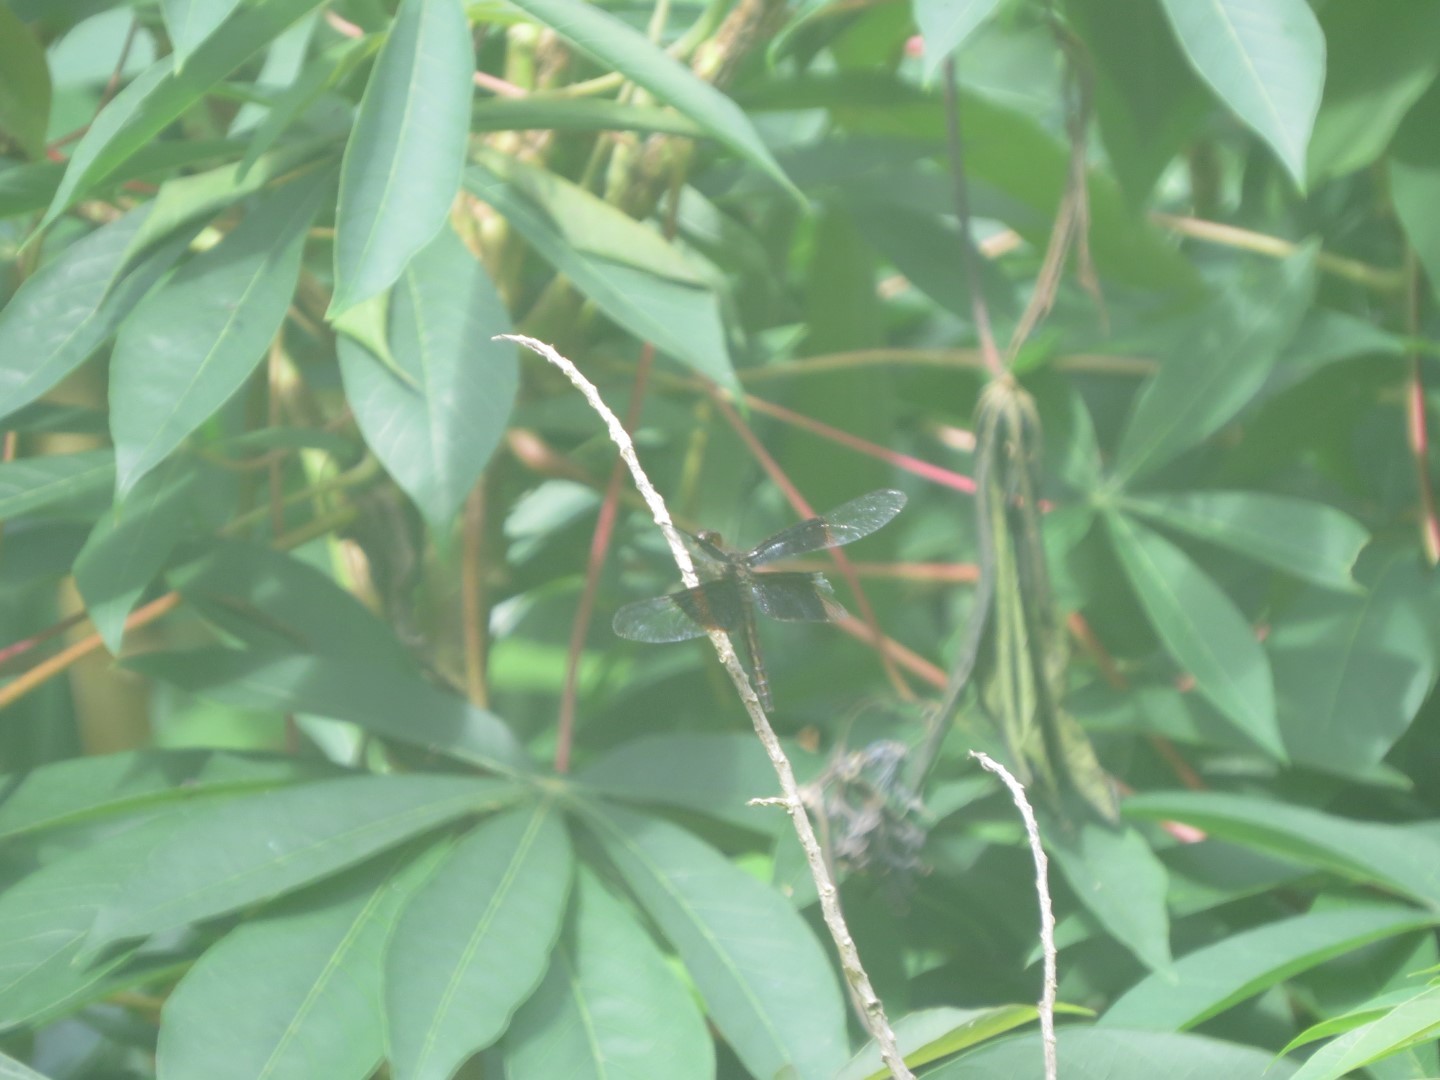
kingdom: Animalia
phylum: Arthropoda
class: Insecta
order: Odonata
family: Libellulidae
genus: Neurothemis
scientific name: Neurothemis decora
